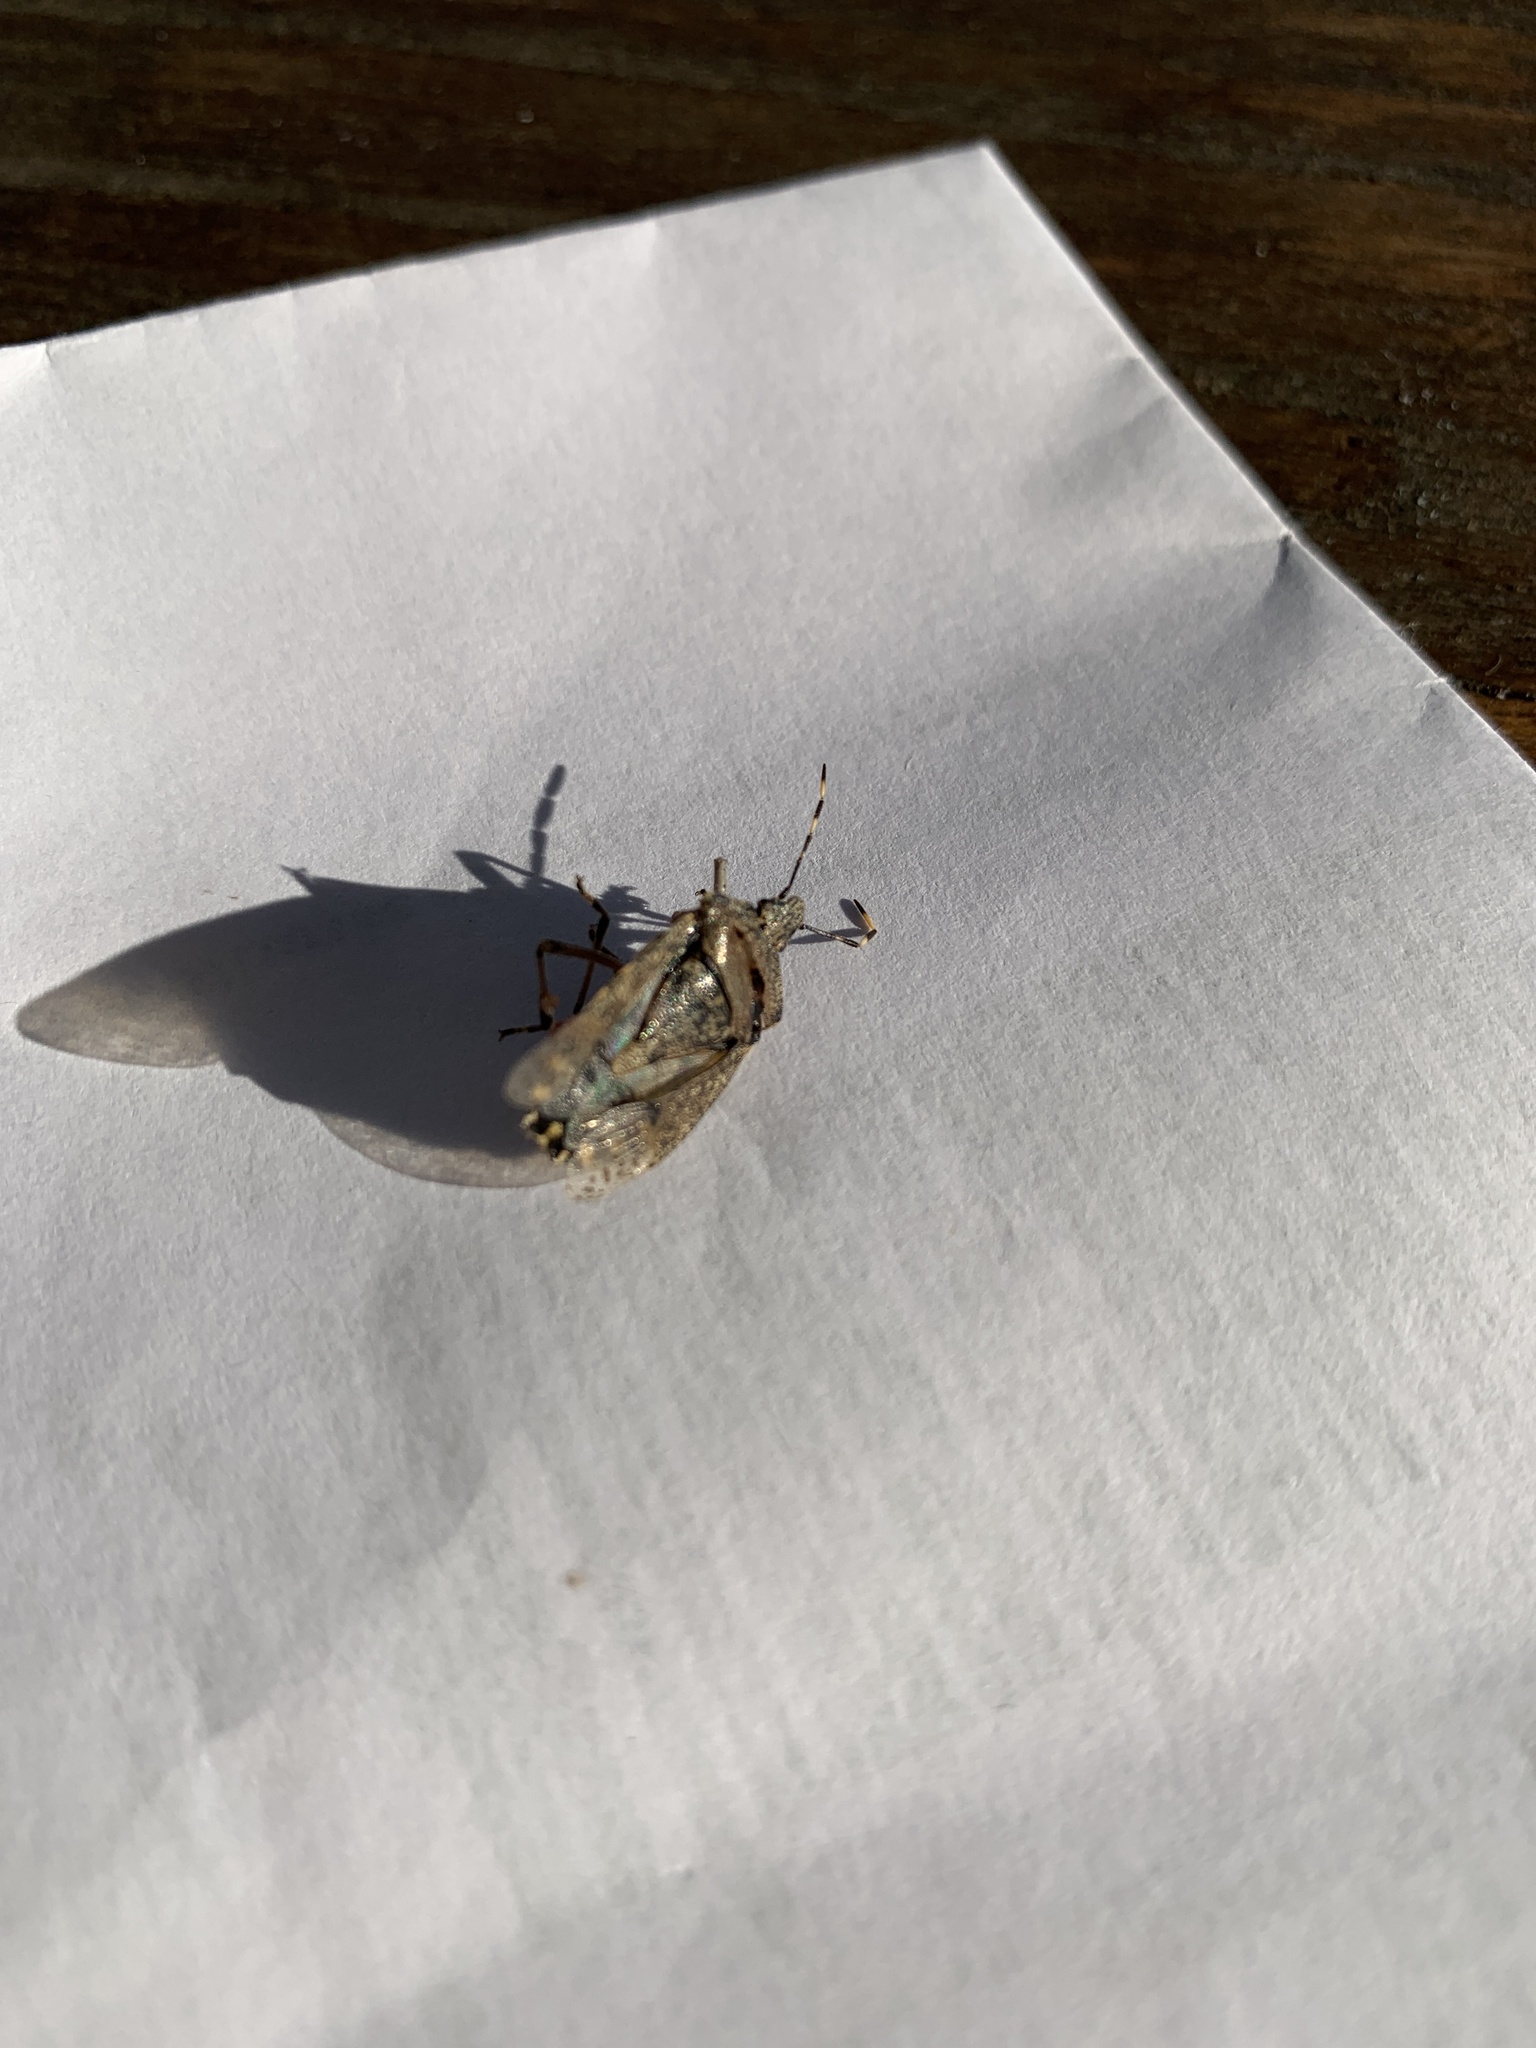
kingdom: Animalia
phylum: Arthropoda
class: Insecta
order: Hemiptera
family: Pentatomidae
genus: Rhaphigaster
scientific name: Rhaphigaster nebulosa
